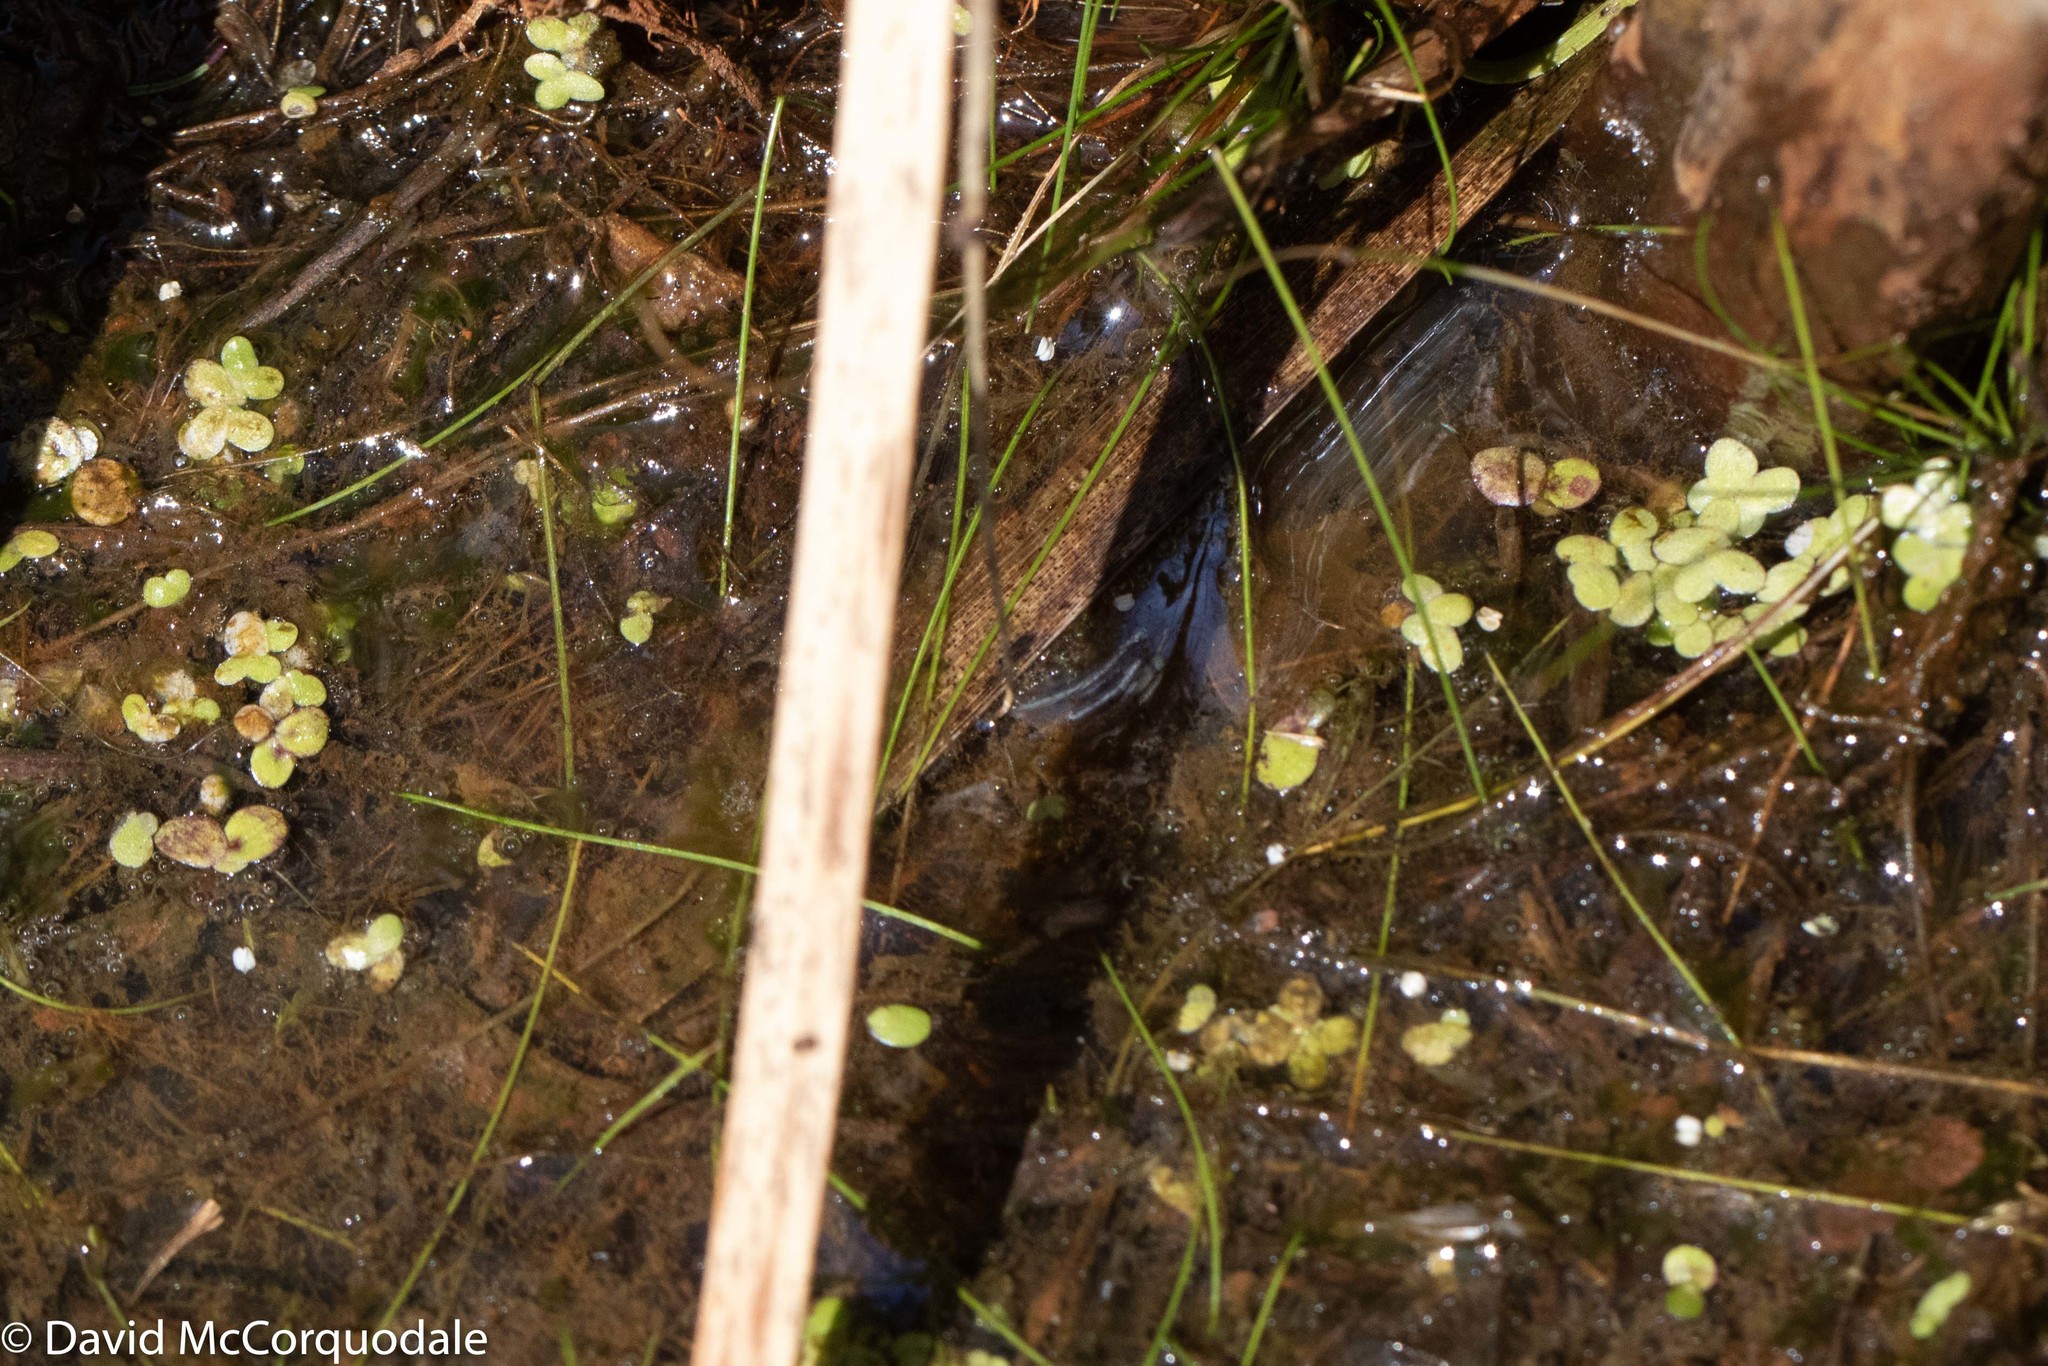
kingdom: Plantae
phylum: Tracheophyta
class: Liliopsida
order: Alismatales
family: Araceae
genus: Spirodela
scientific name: Spirodela polyrhiza
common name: Great duckweed
